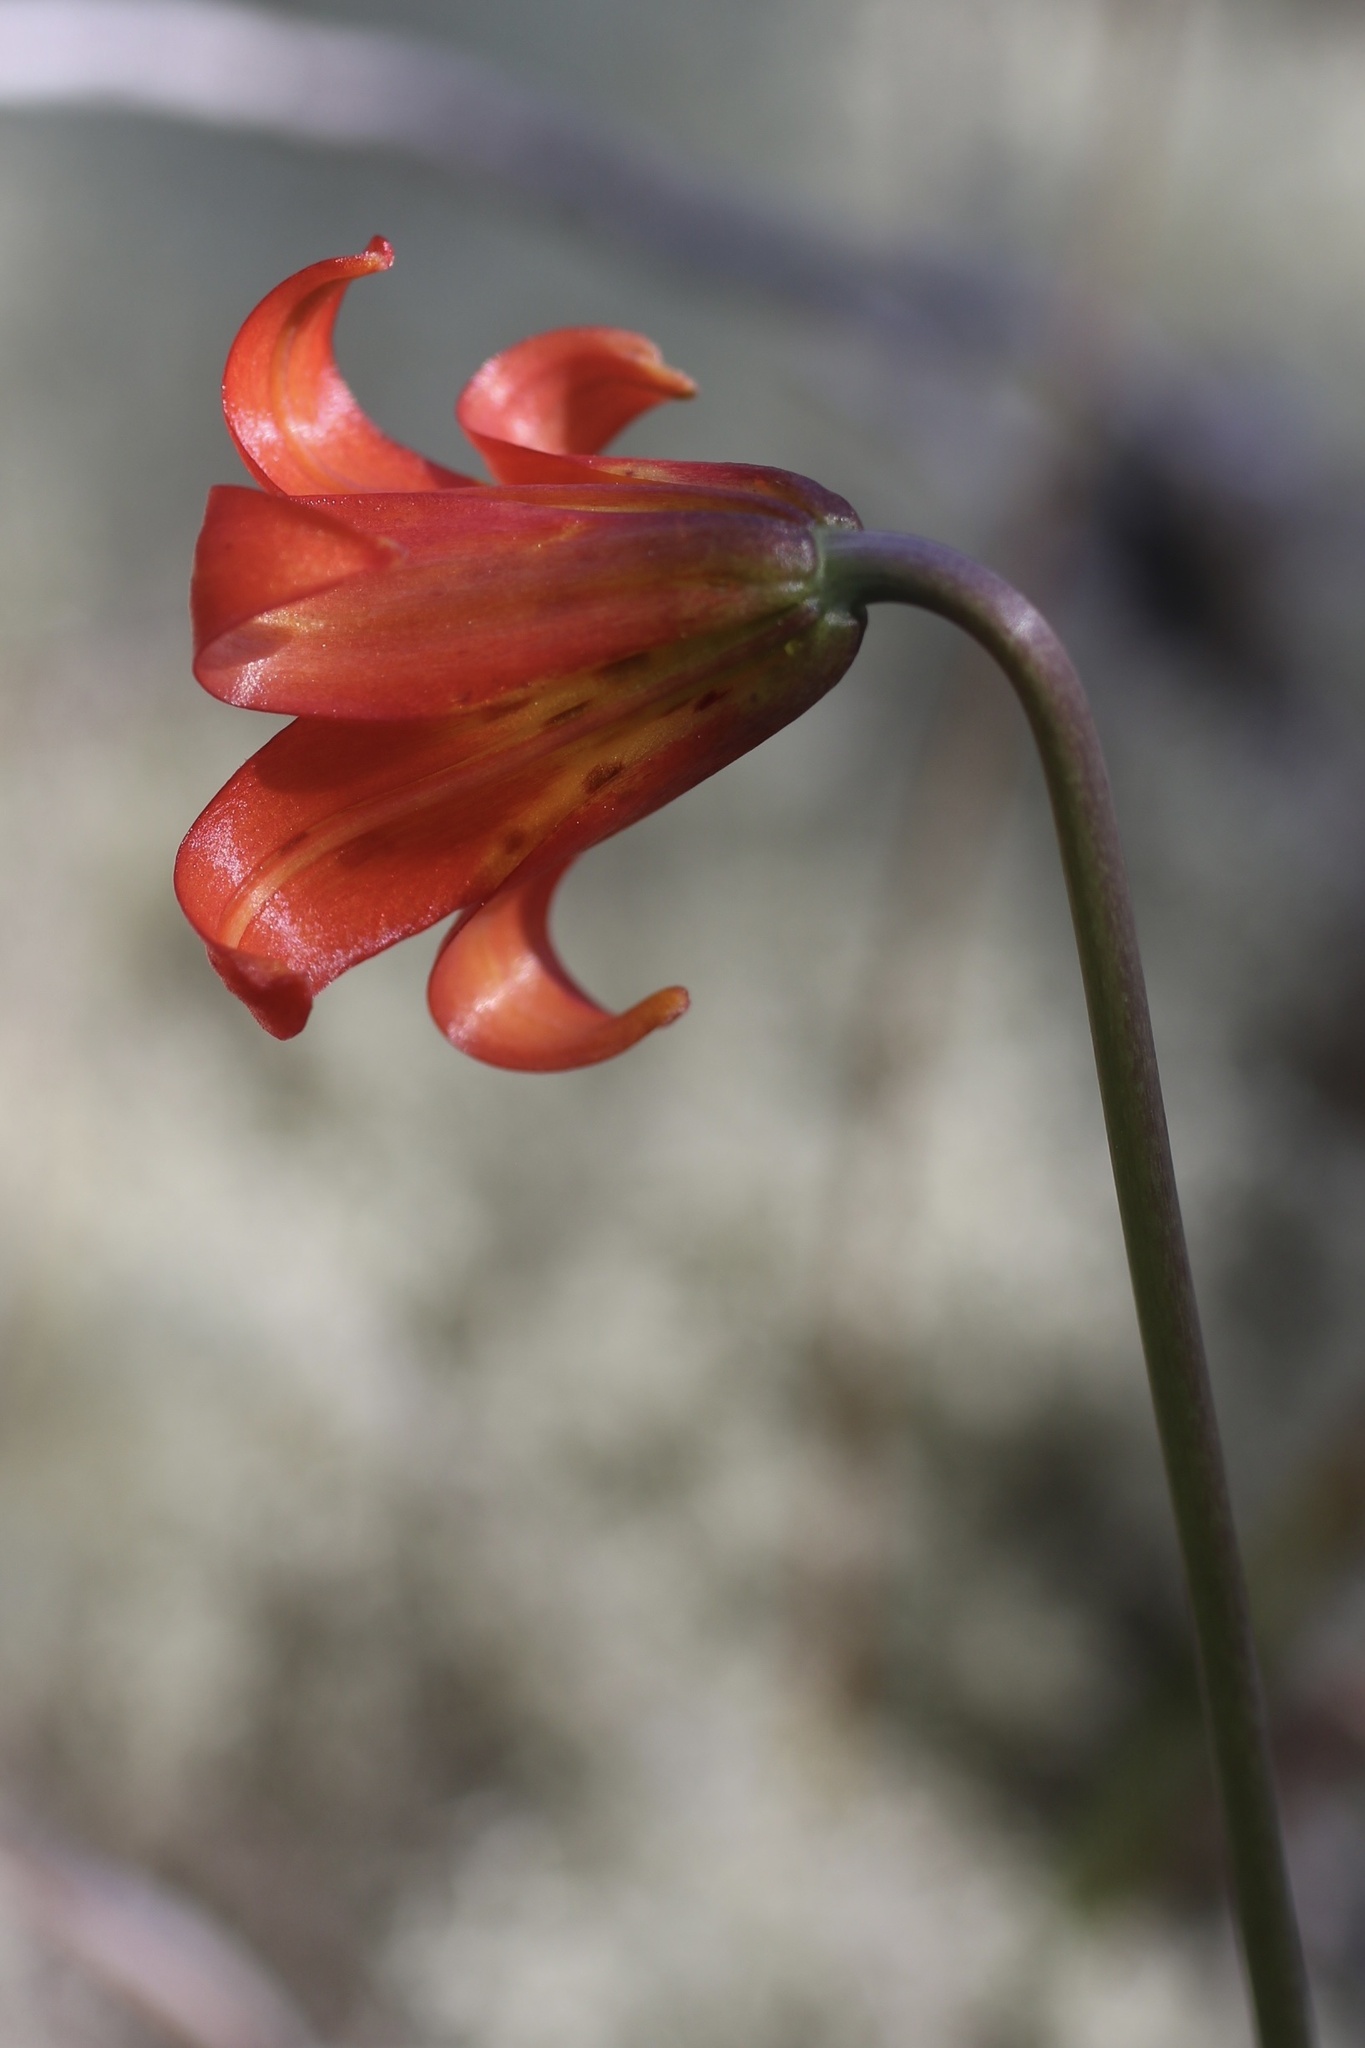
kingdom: Plantae
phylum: Tracheophyta
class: Liliopsida
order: Liliales
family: Liliaceae
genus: Lilium
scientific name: Lilium maritimum
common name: Coastal lily
